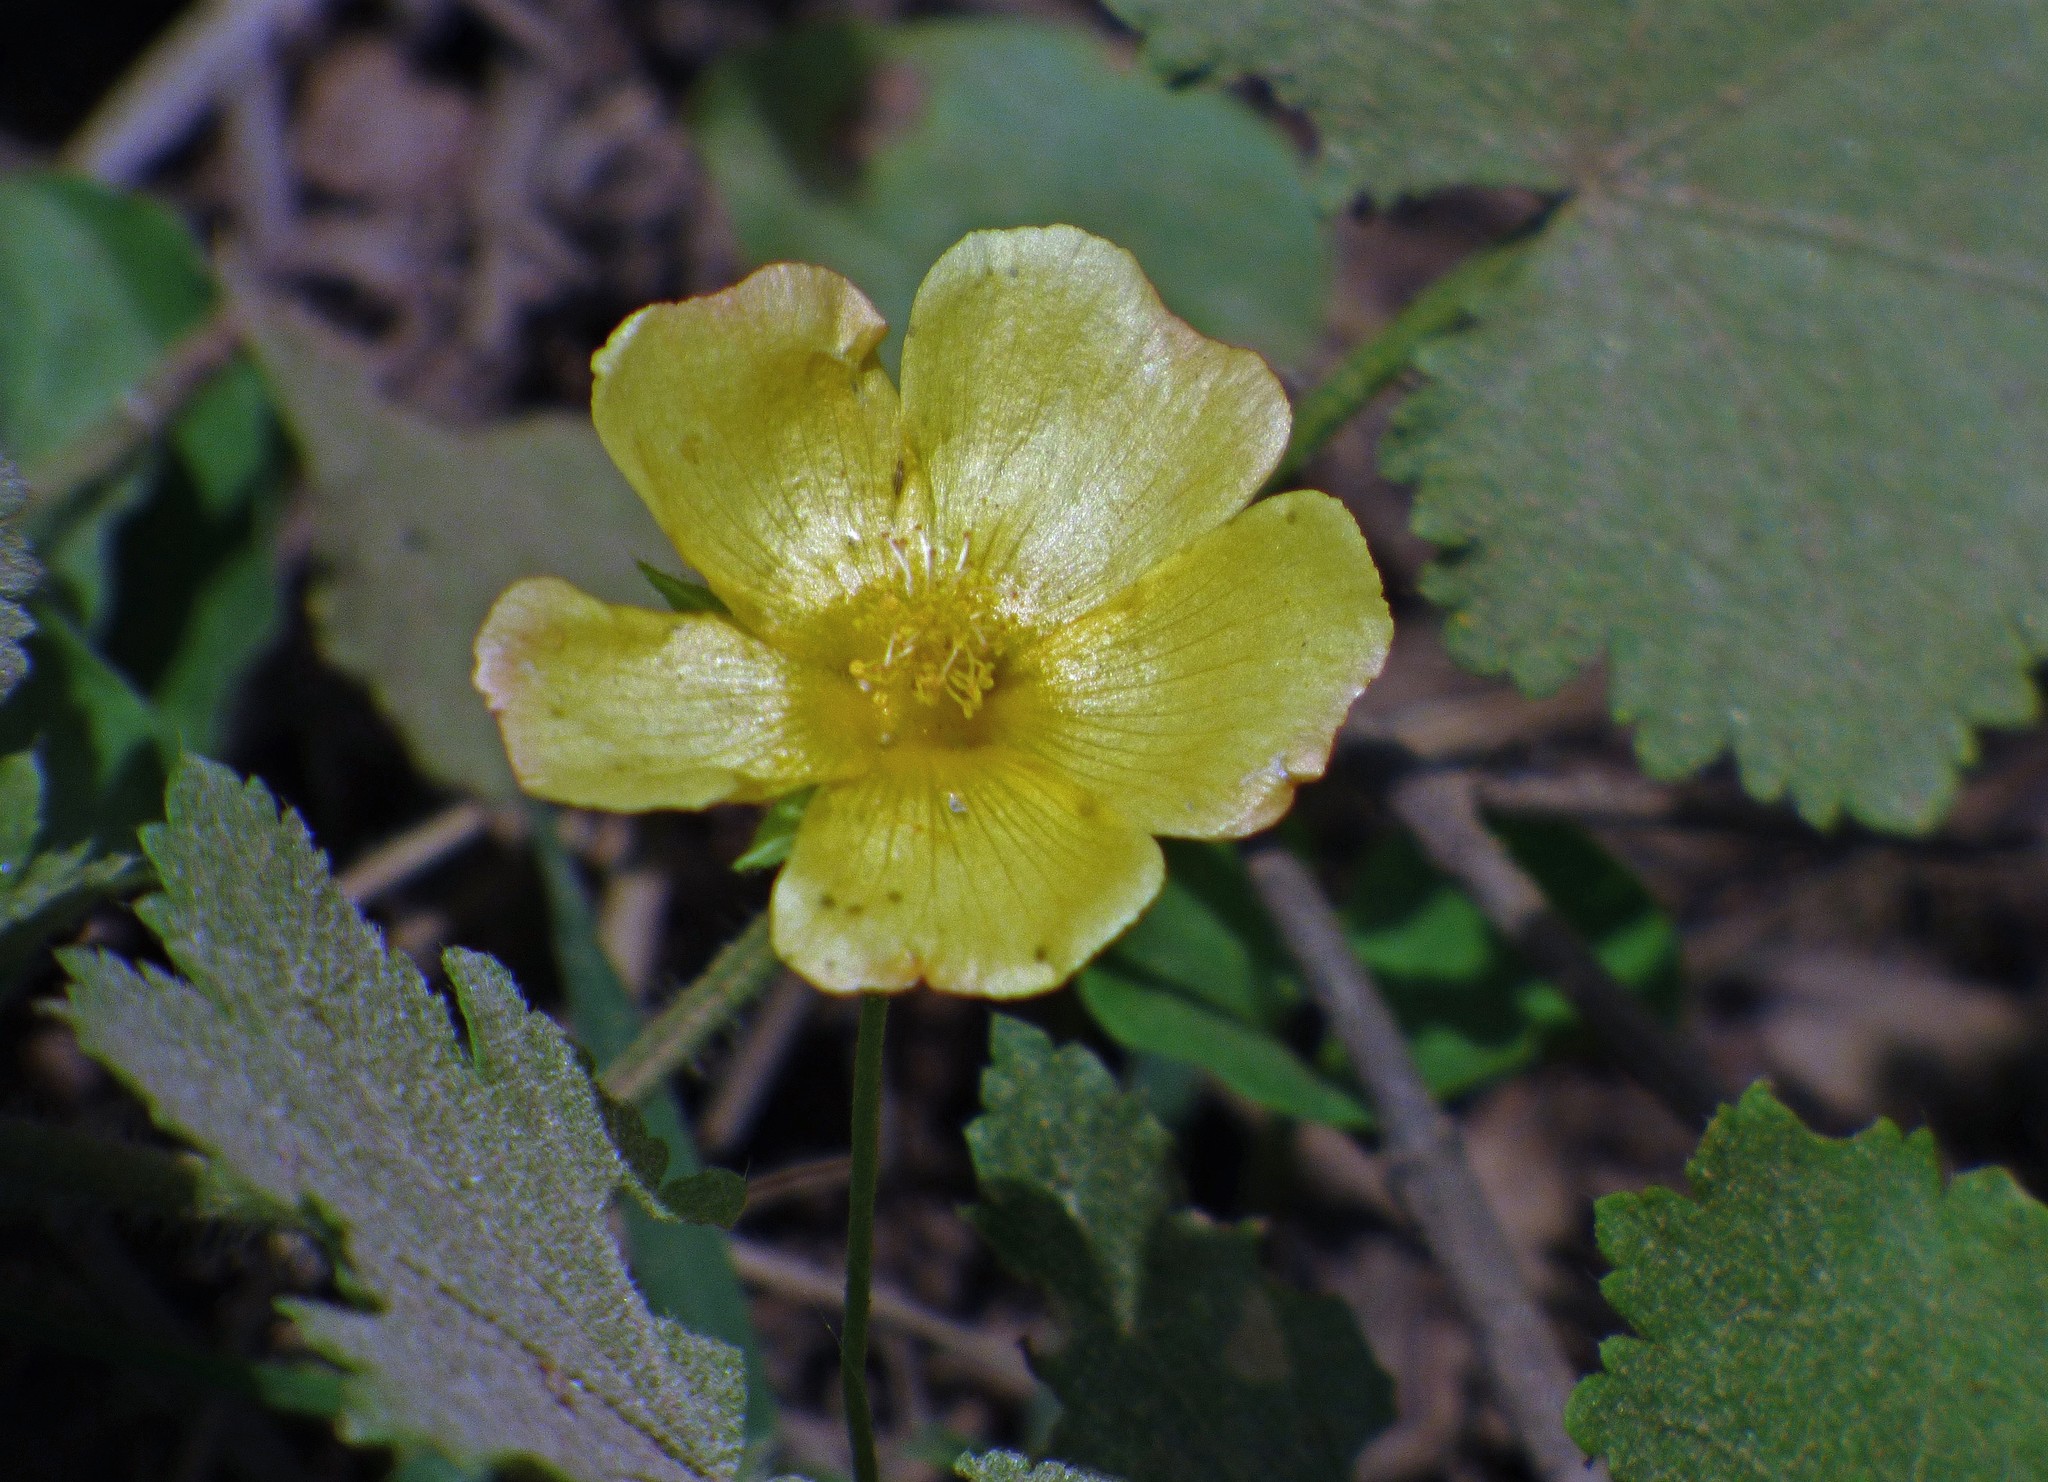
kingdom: Plantae
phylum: Tracheophyta
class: Magnoliopsida
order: Malvales
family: Malvaceae
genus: Modiolastrum
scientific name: Modiolastrum malvifolium
